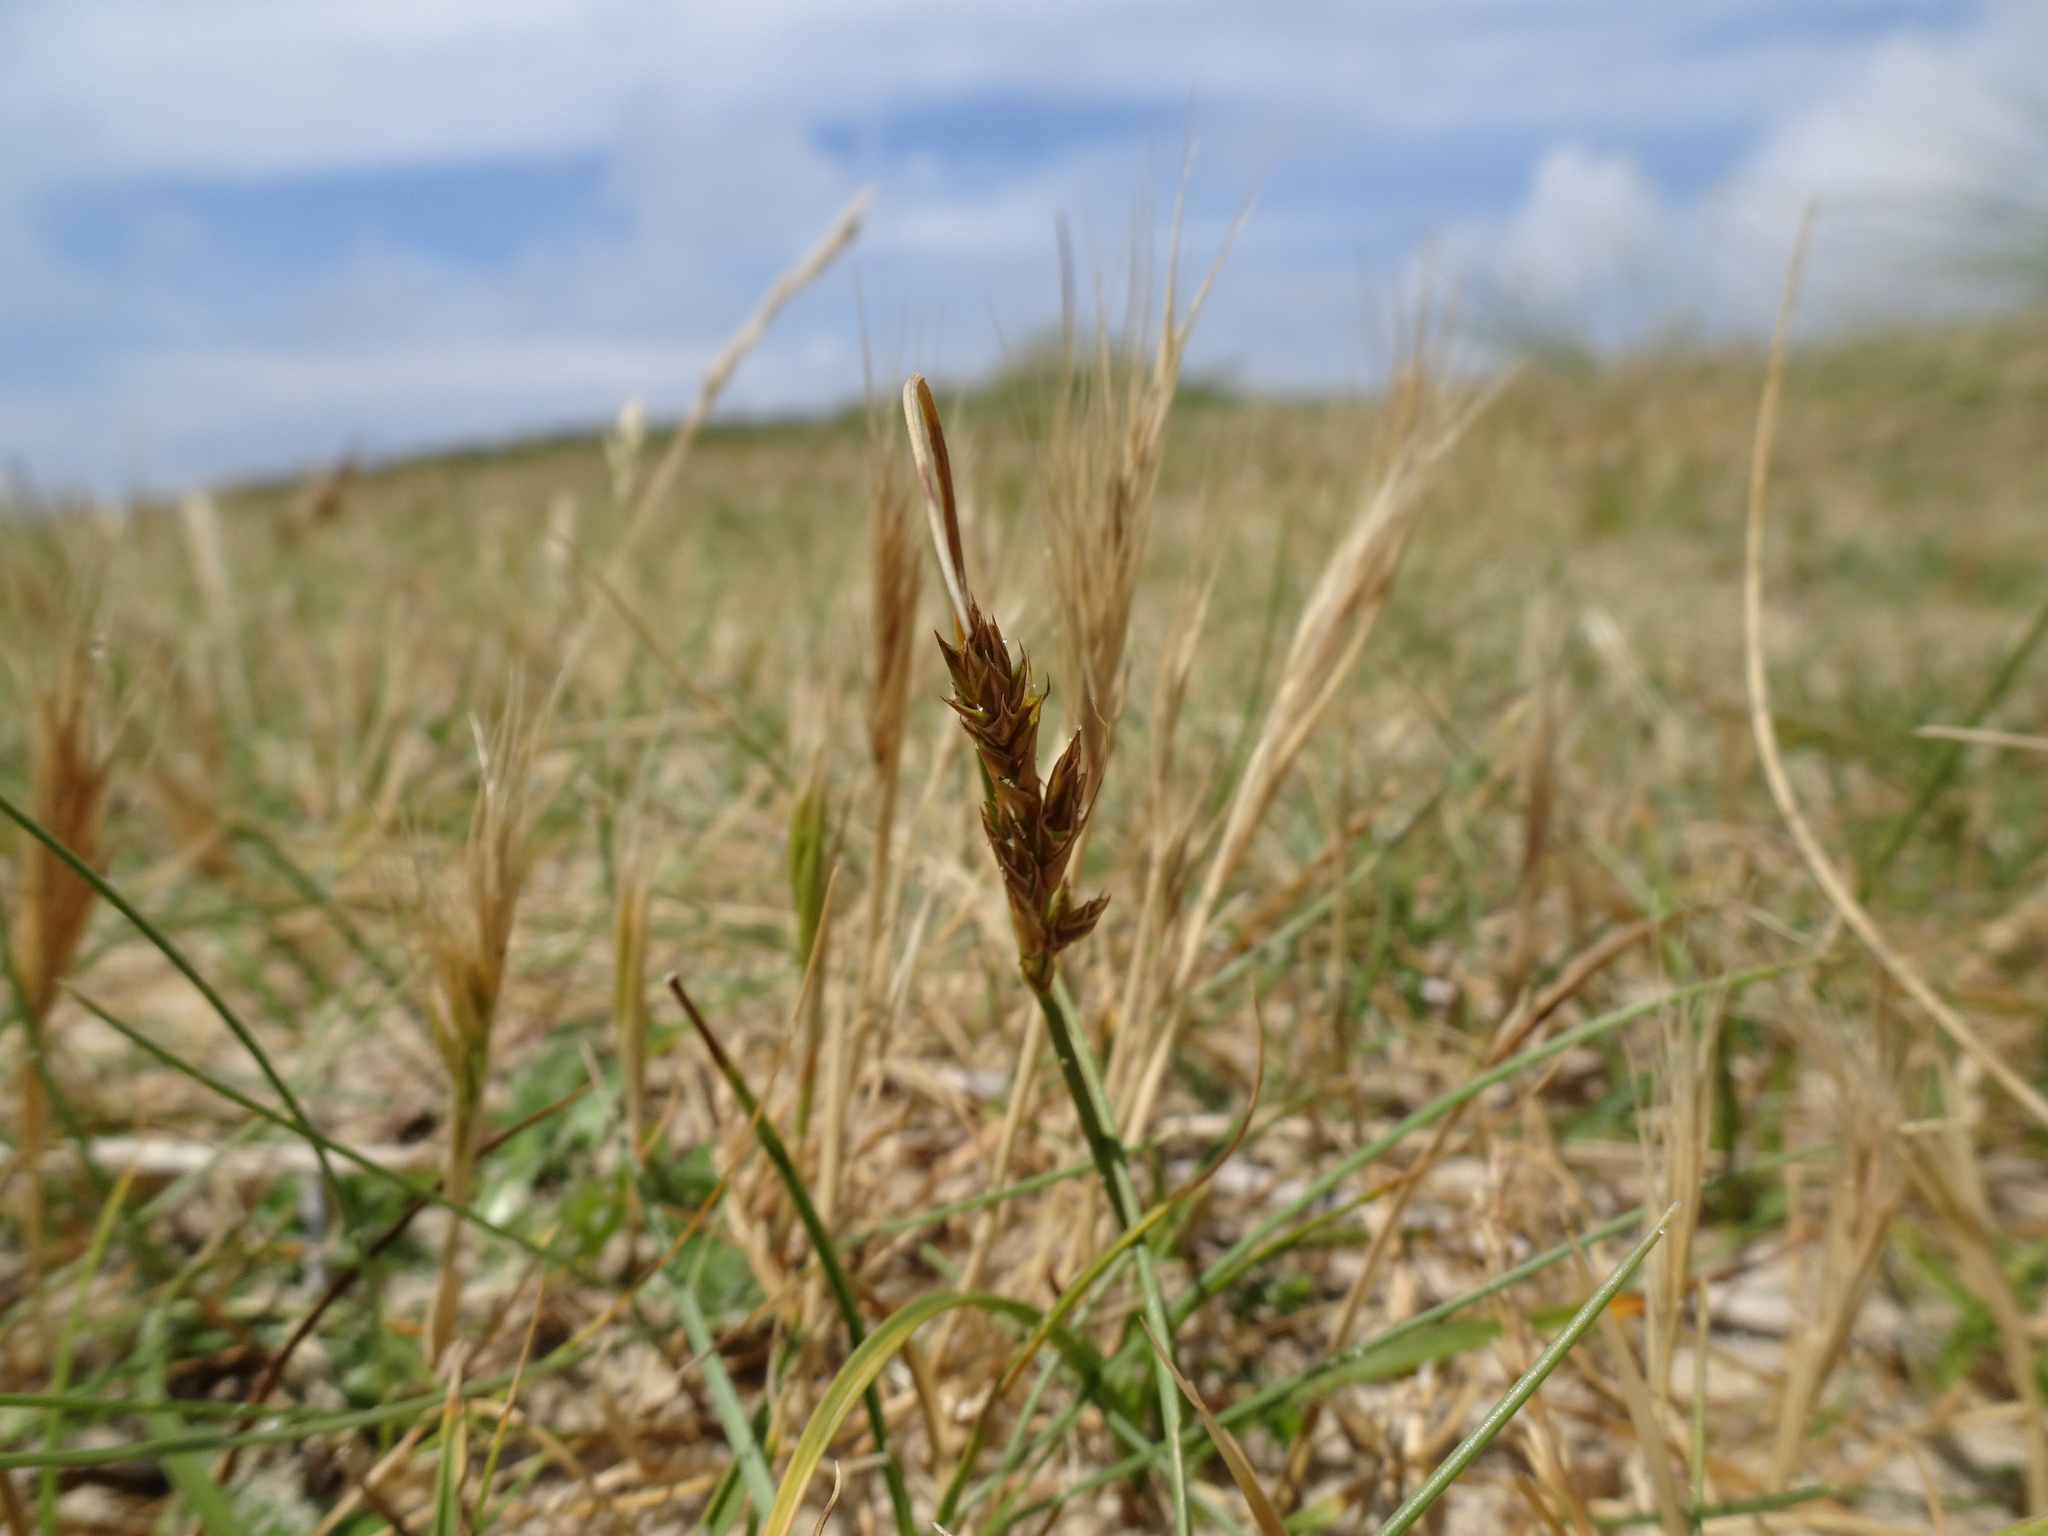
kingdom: Plantae
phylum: Tracheophyta
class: Liliopsida
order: Poales
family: Cyperaceae
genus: Carex
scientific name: Carex arenaria
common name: Sand sedge
